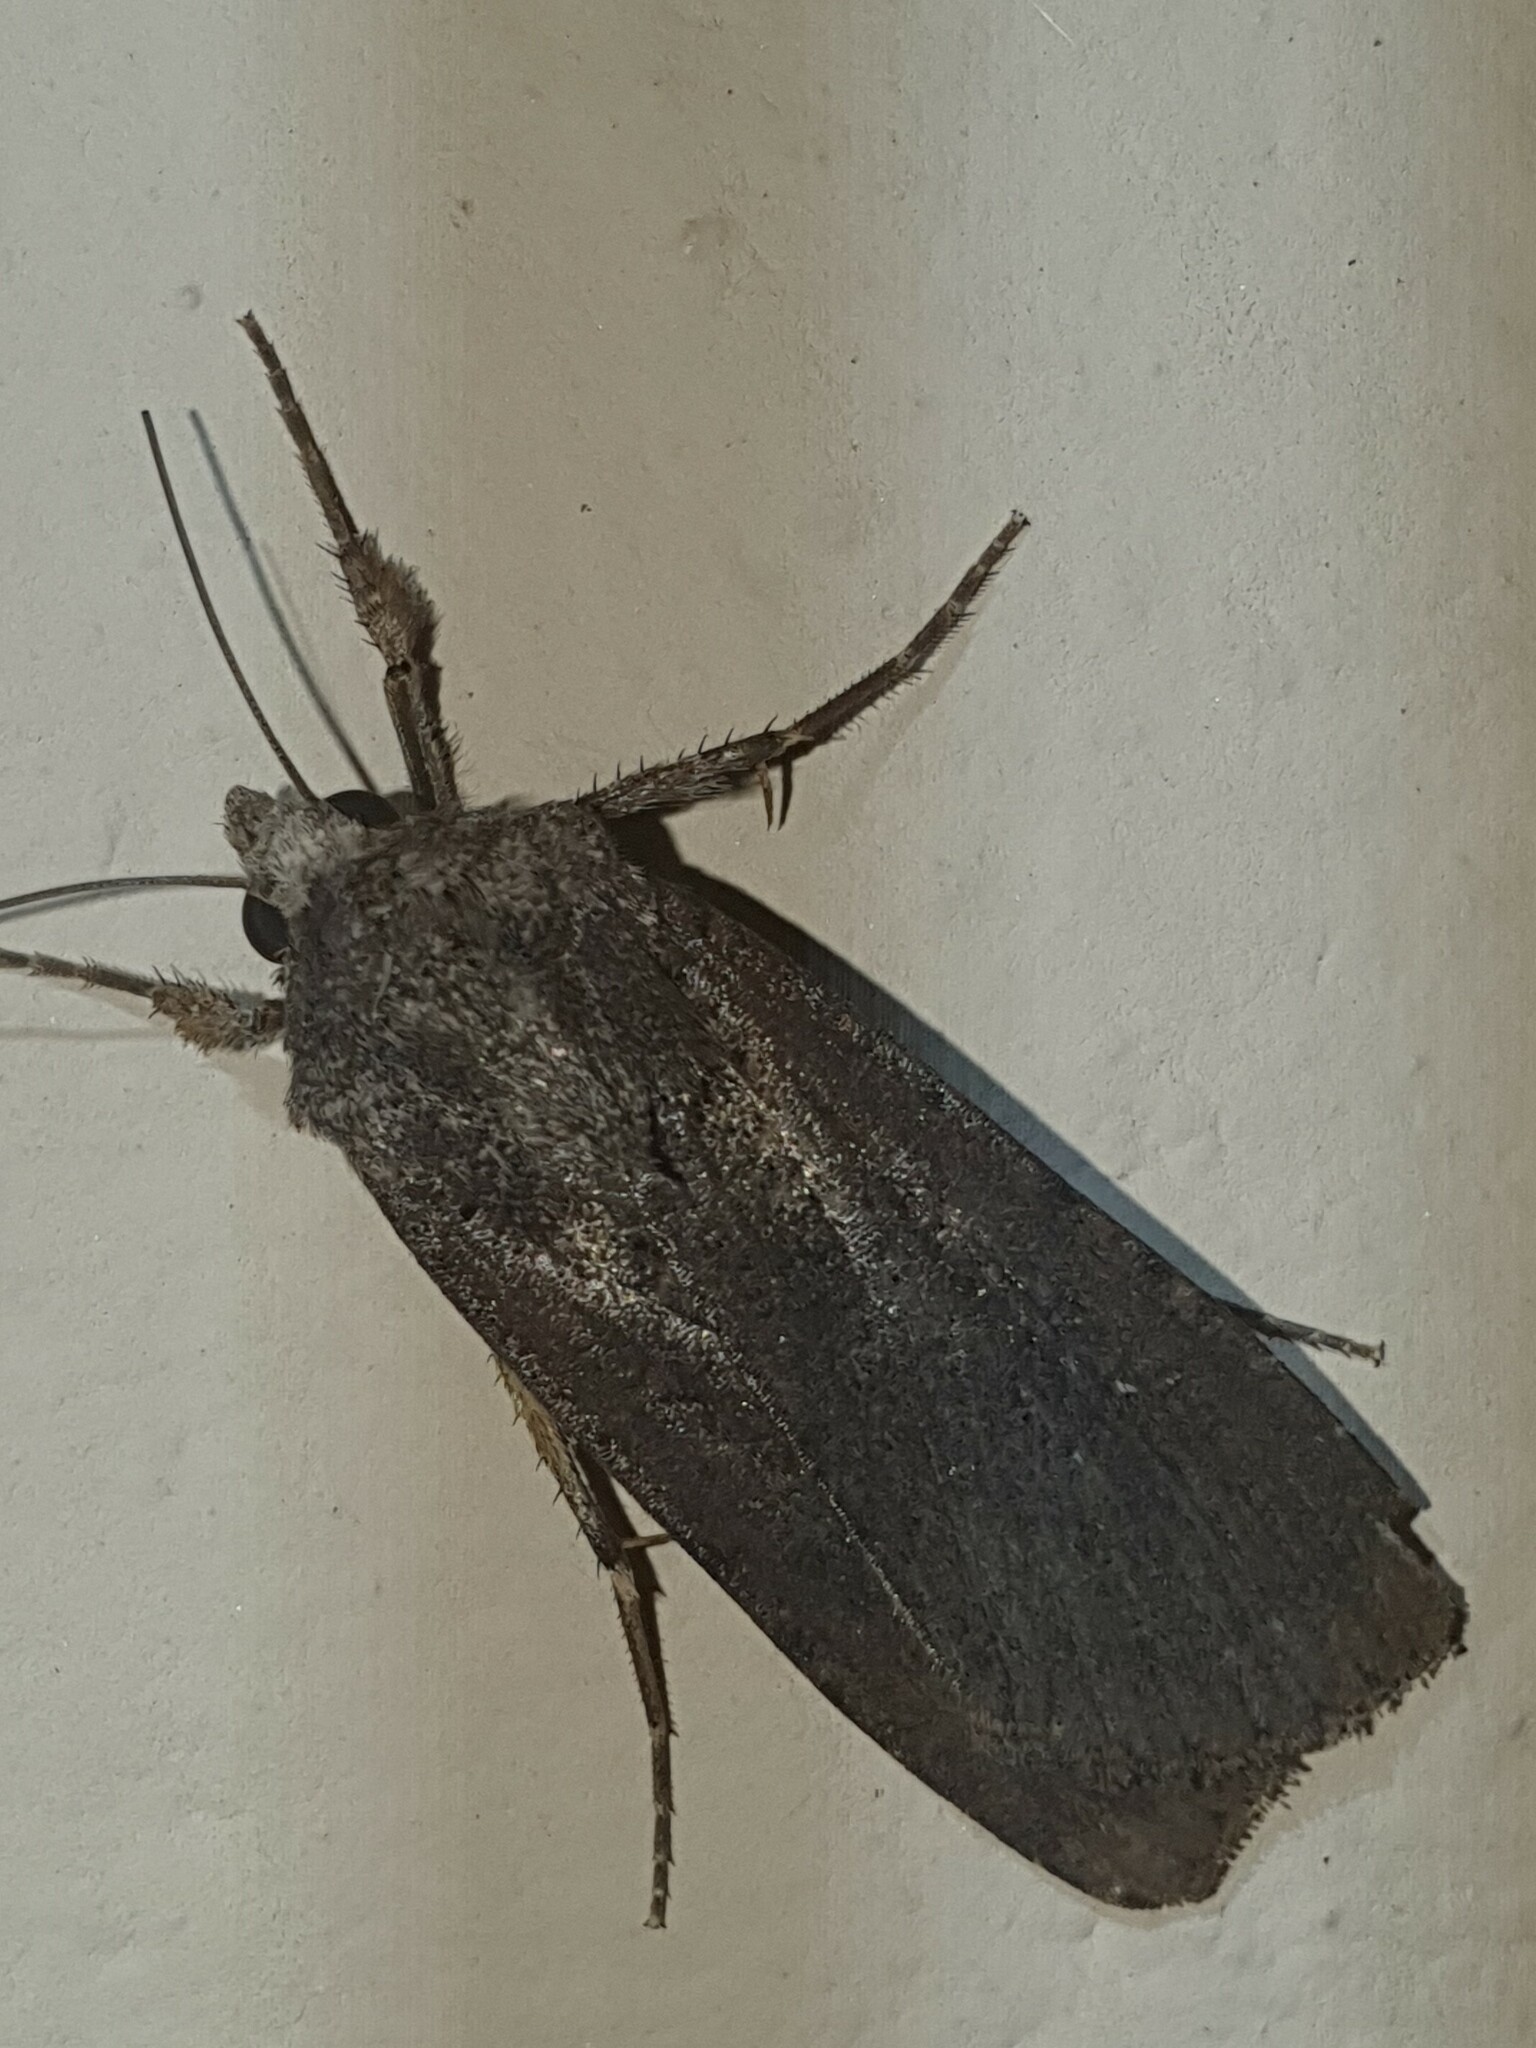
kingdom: Animalia
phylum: Arthropoda
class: Insecta
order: Lepidoptera
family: Noctuidae
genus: Peridroma
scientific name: Peridroma saucia
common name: Pearly underwing
